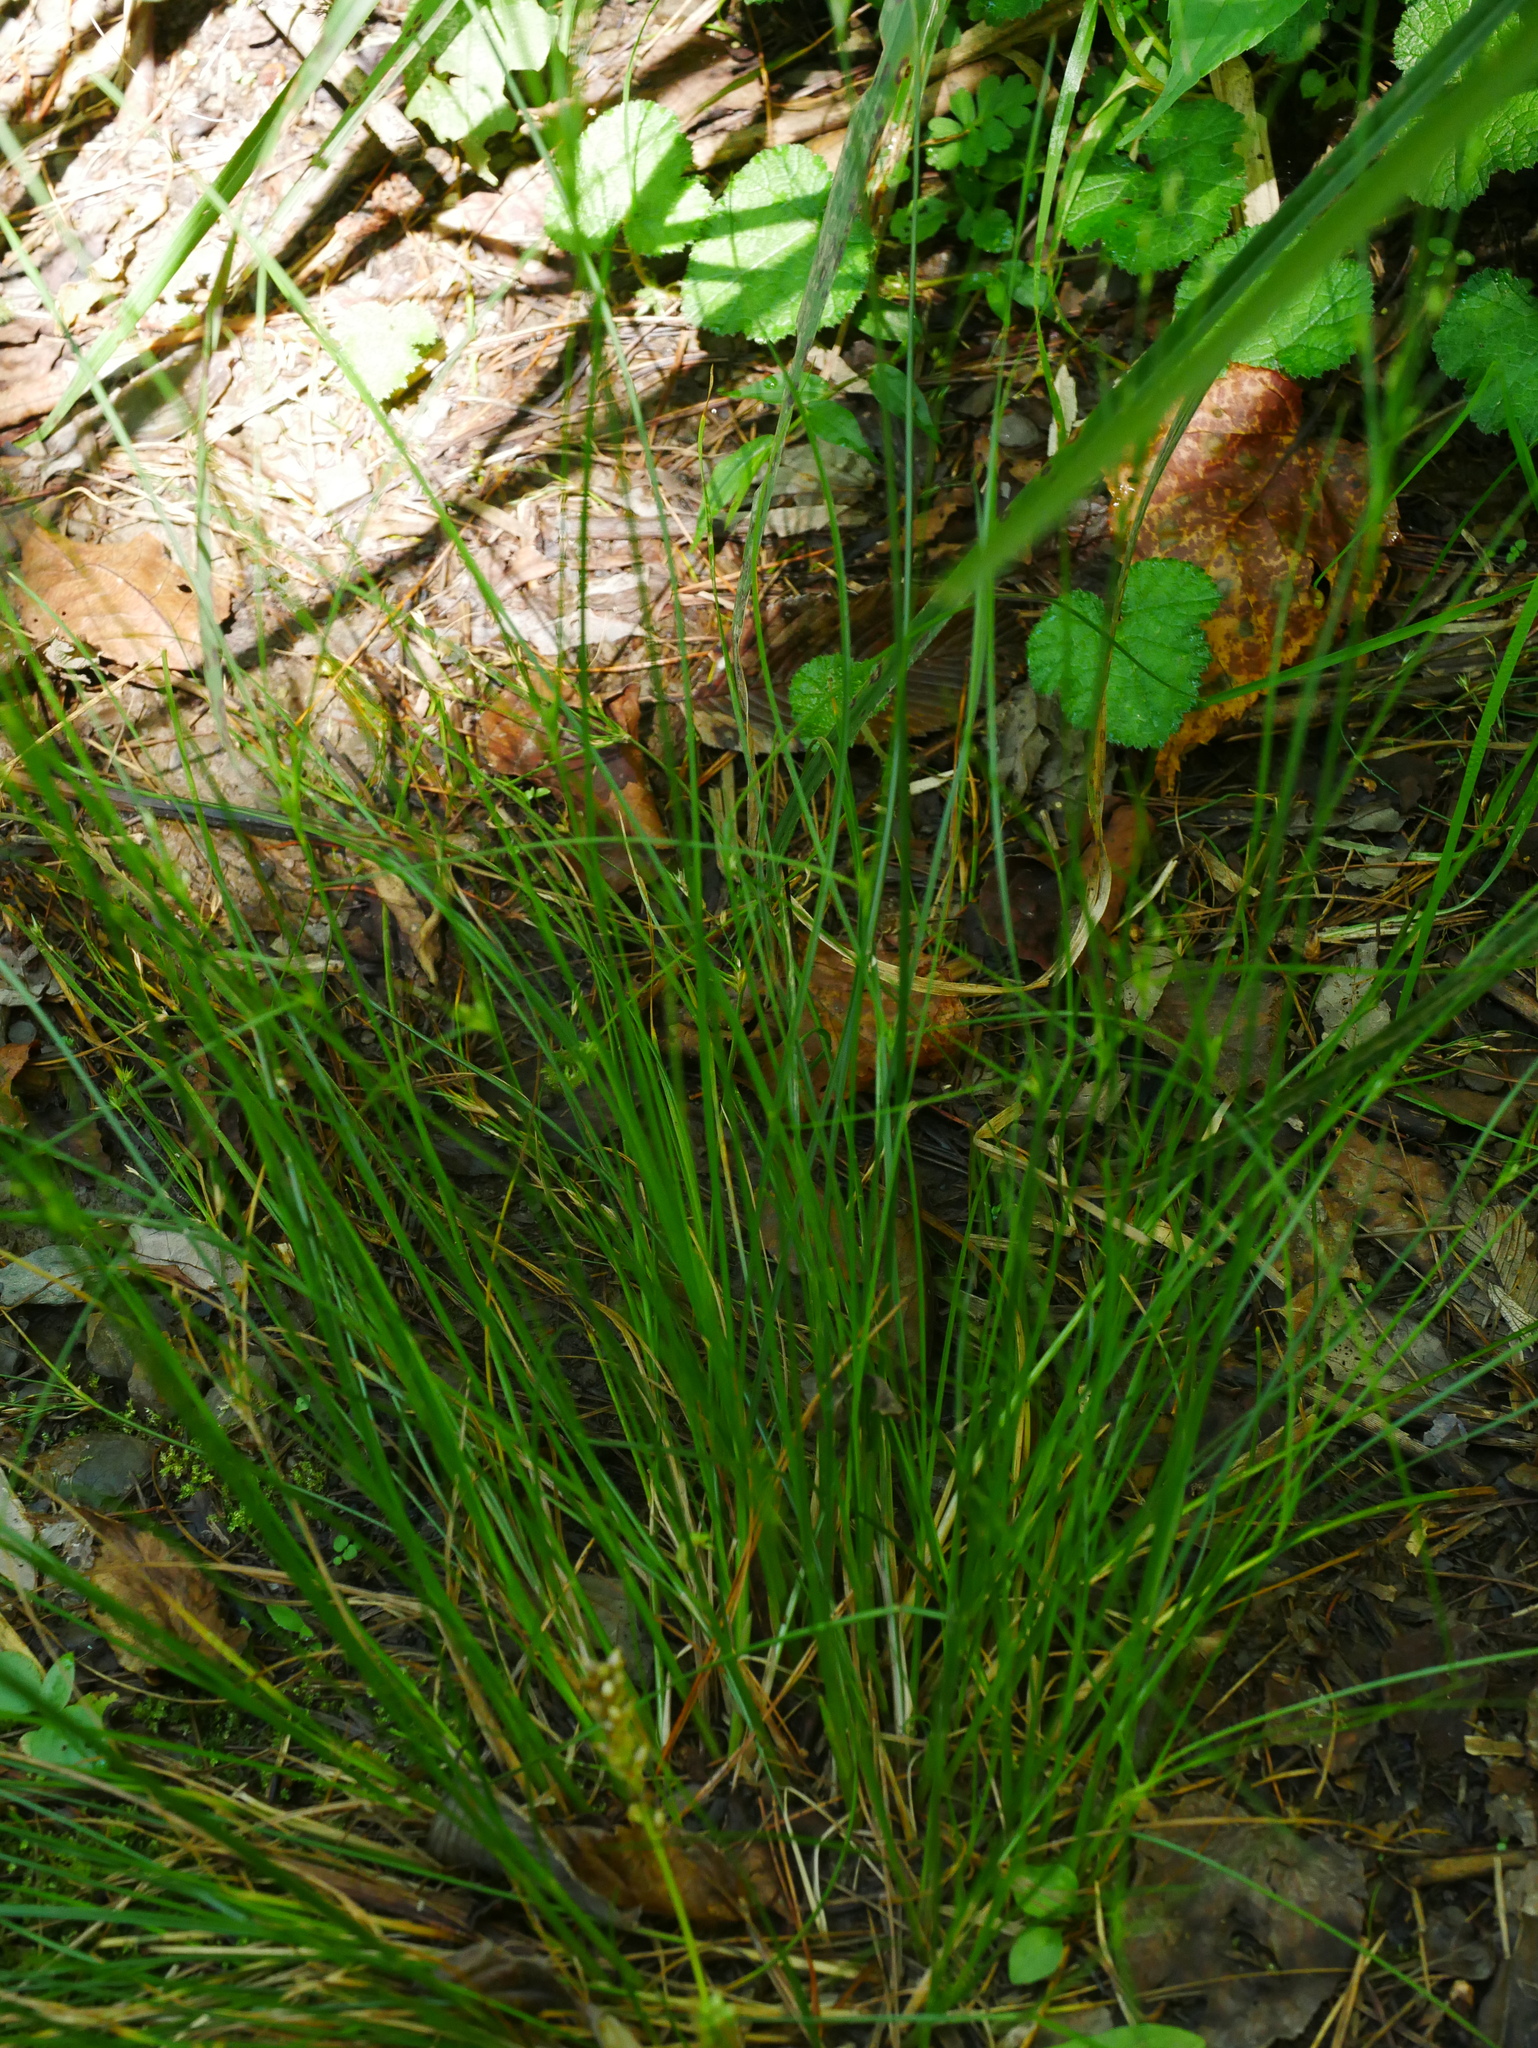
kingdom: Plantae
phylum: Tracheophyta
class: Liliopsida
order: Poales
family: Juncaceae
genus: Juncus
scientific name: Juncus tenuis
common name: Slender rush
